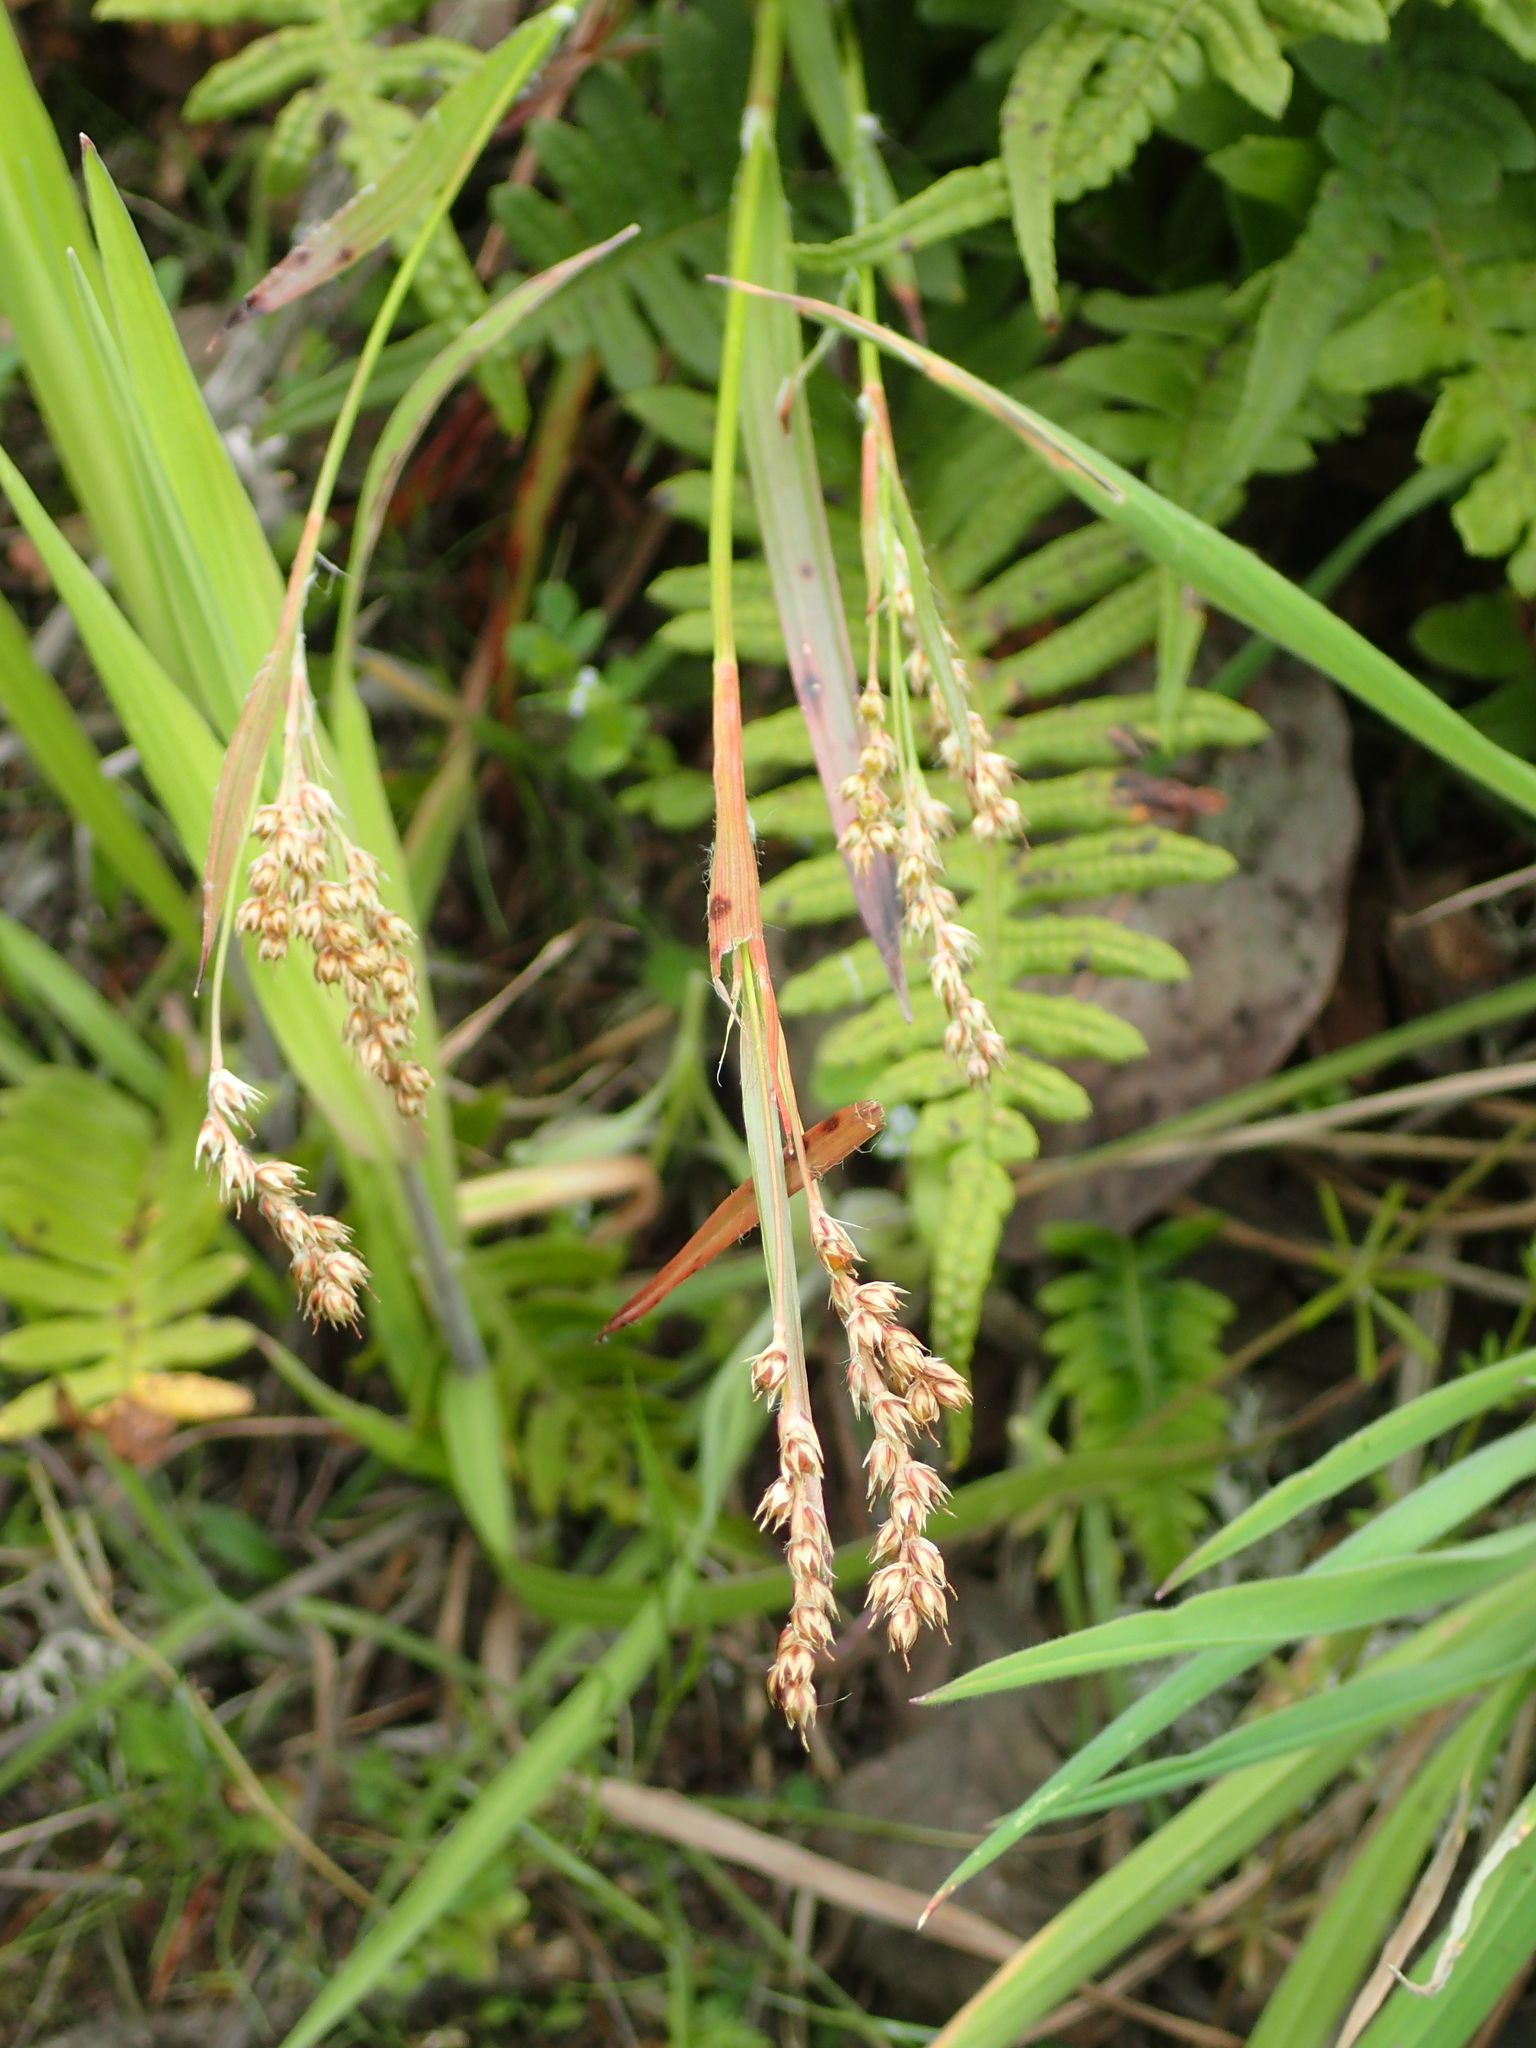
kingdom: Plantae
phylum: Tracheophyta
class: Liliopsida
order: Poales
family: Juncaceae
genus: Luzula
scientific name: Luzula parviflora
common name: Millet woodrush
